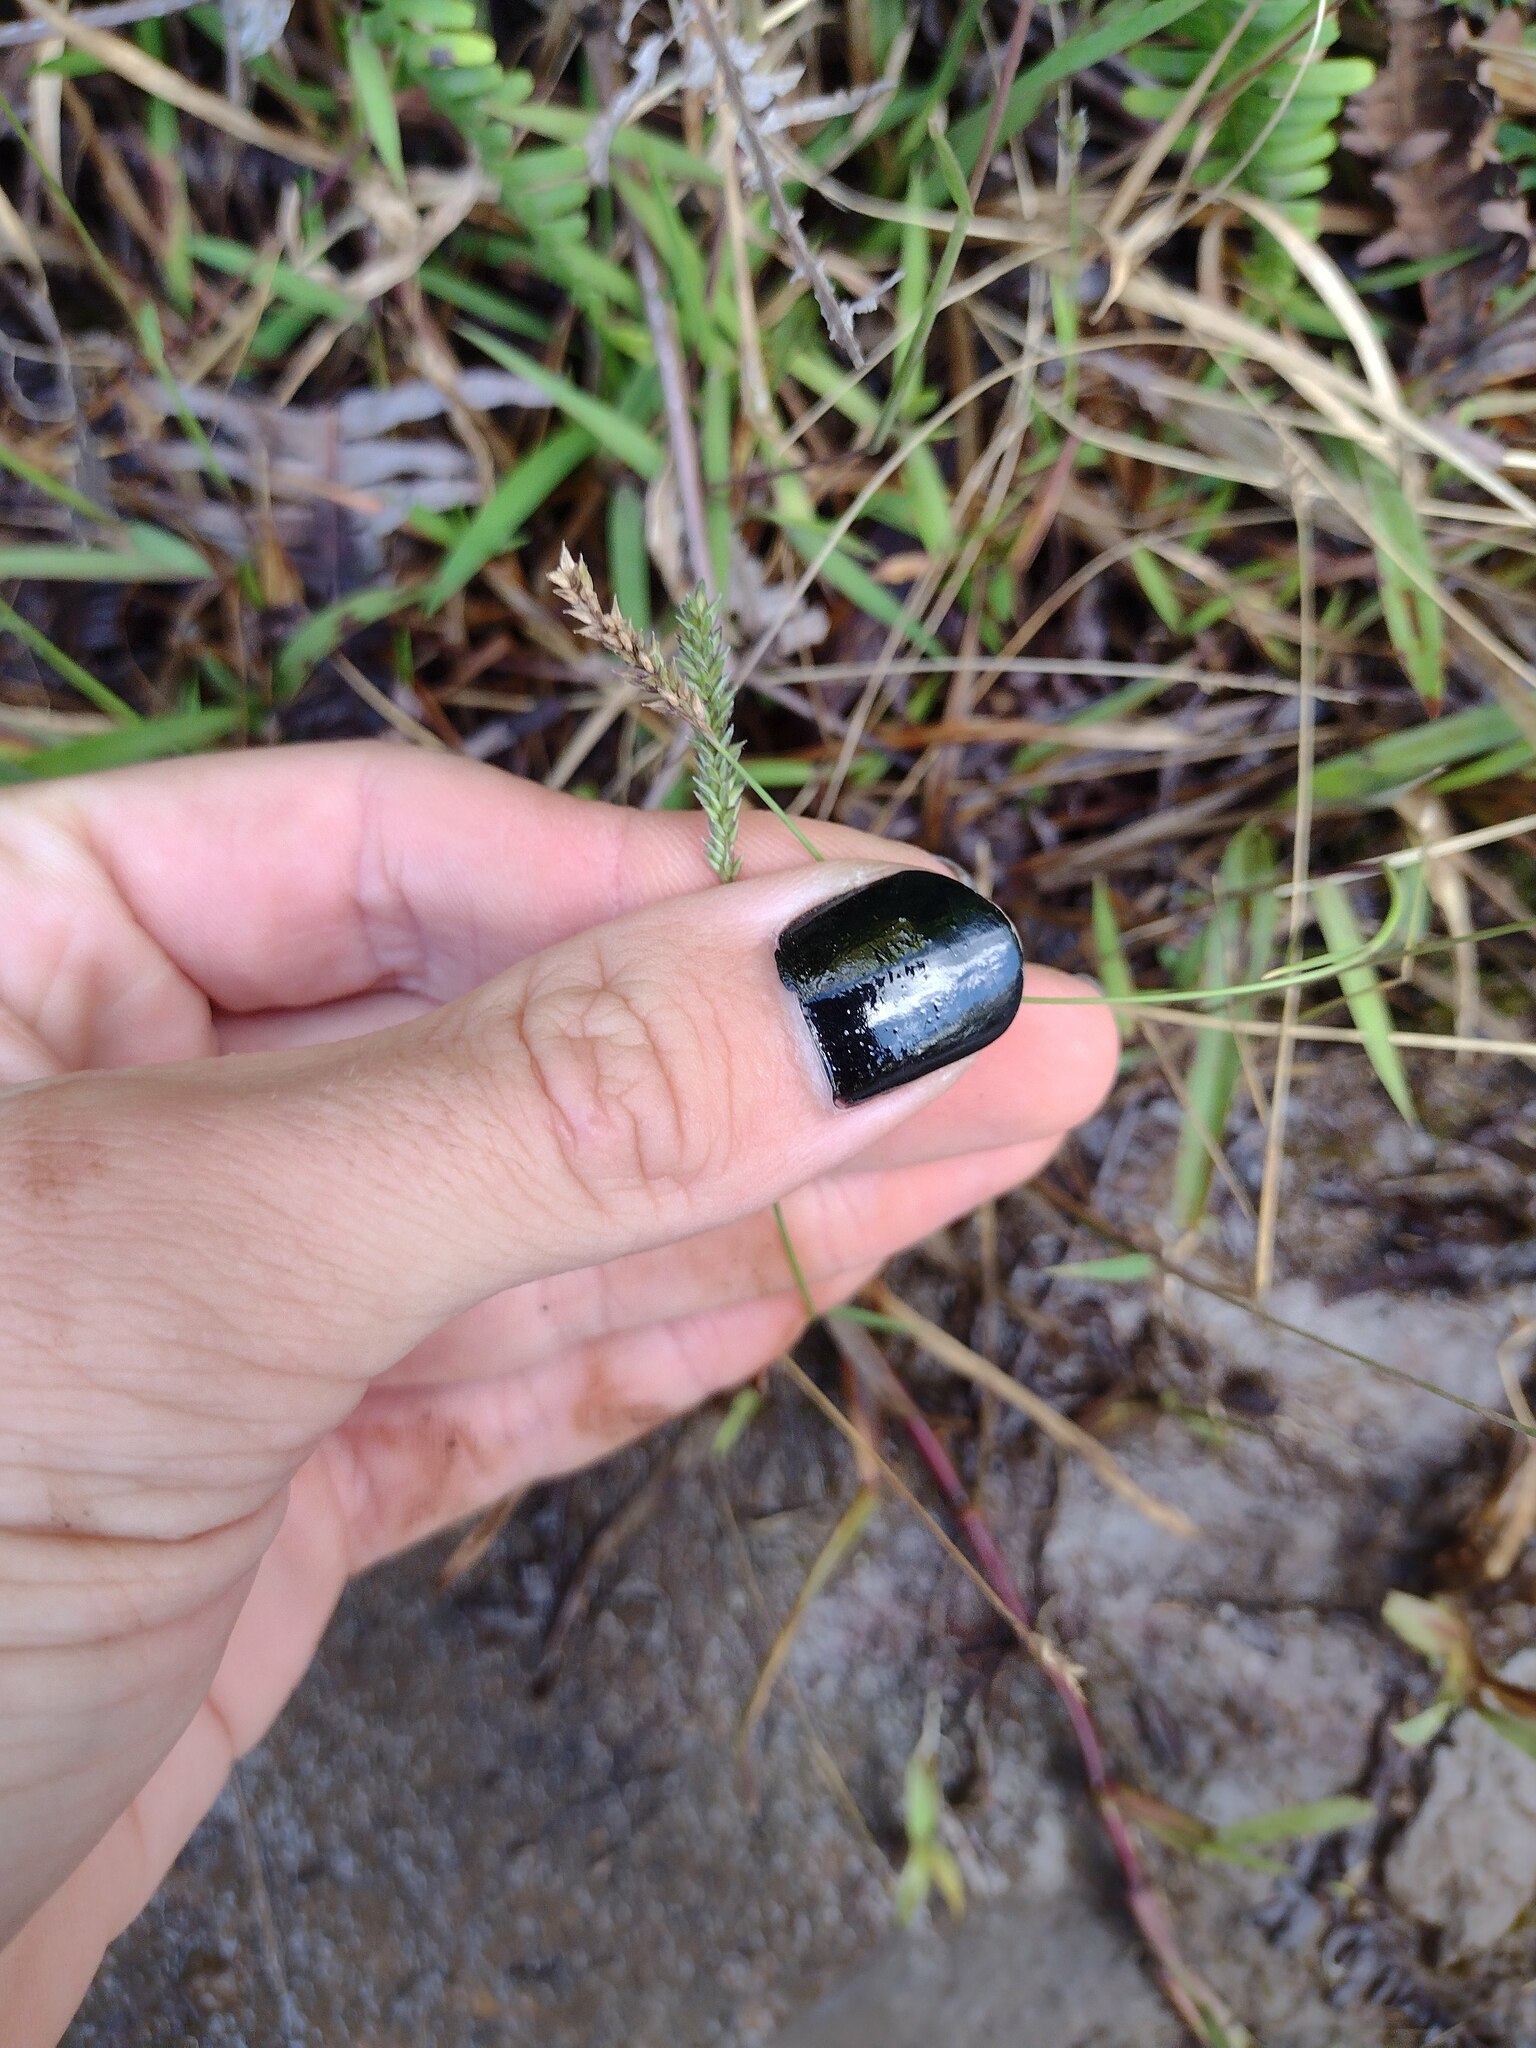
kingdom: Plantae
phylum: Tracheophyta
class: Liliopsida
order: Poales
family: Poaceae
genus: Sacciolepis
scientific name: Sacciolepis indica
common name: Glenwoodgrass
